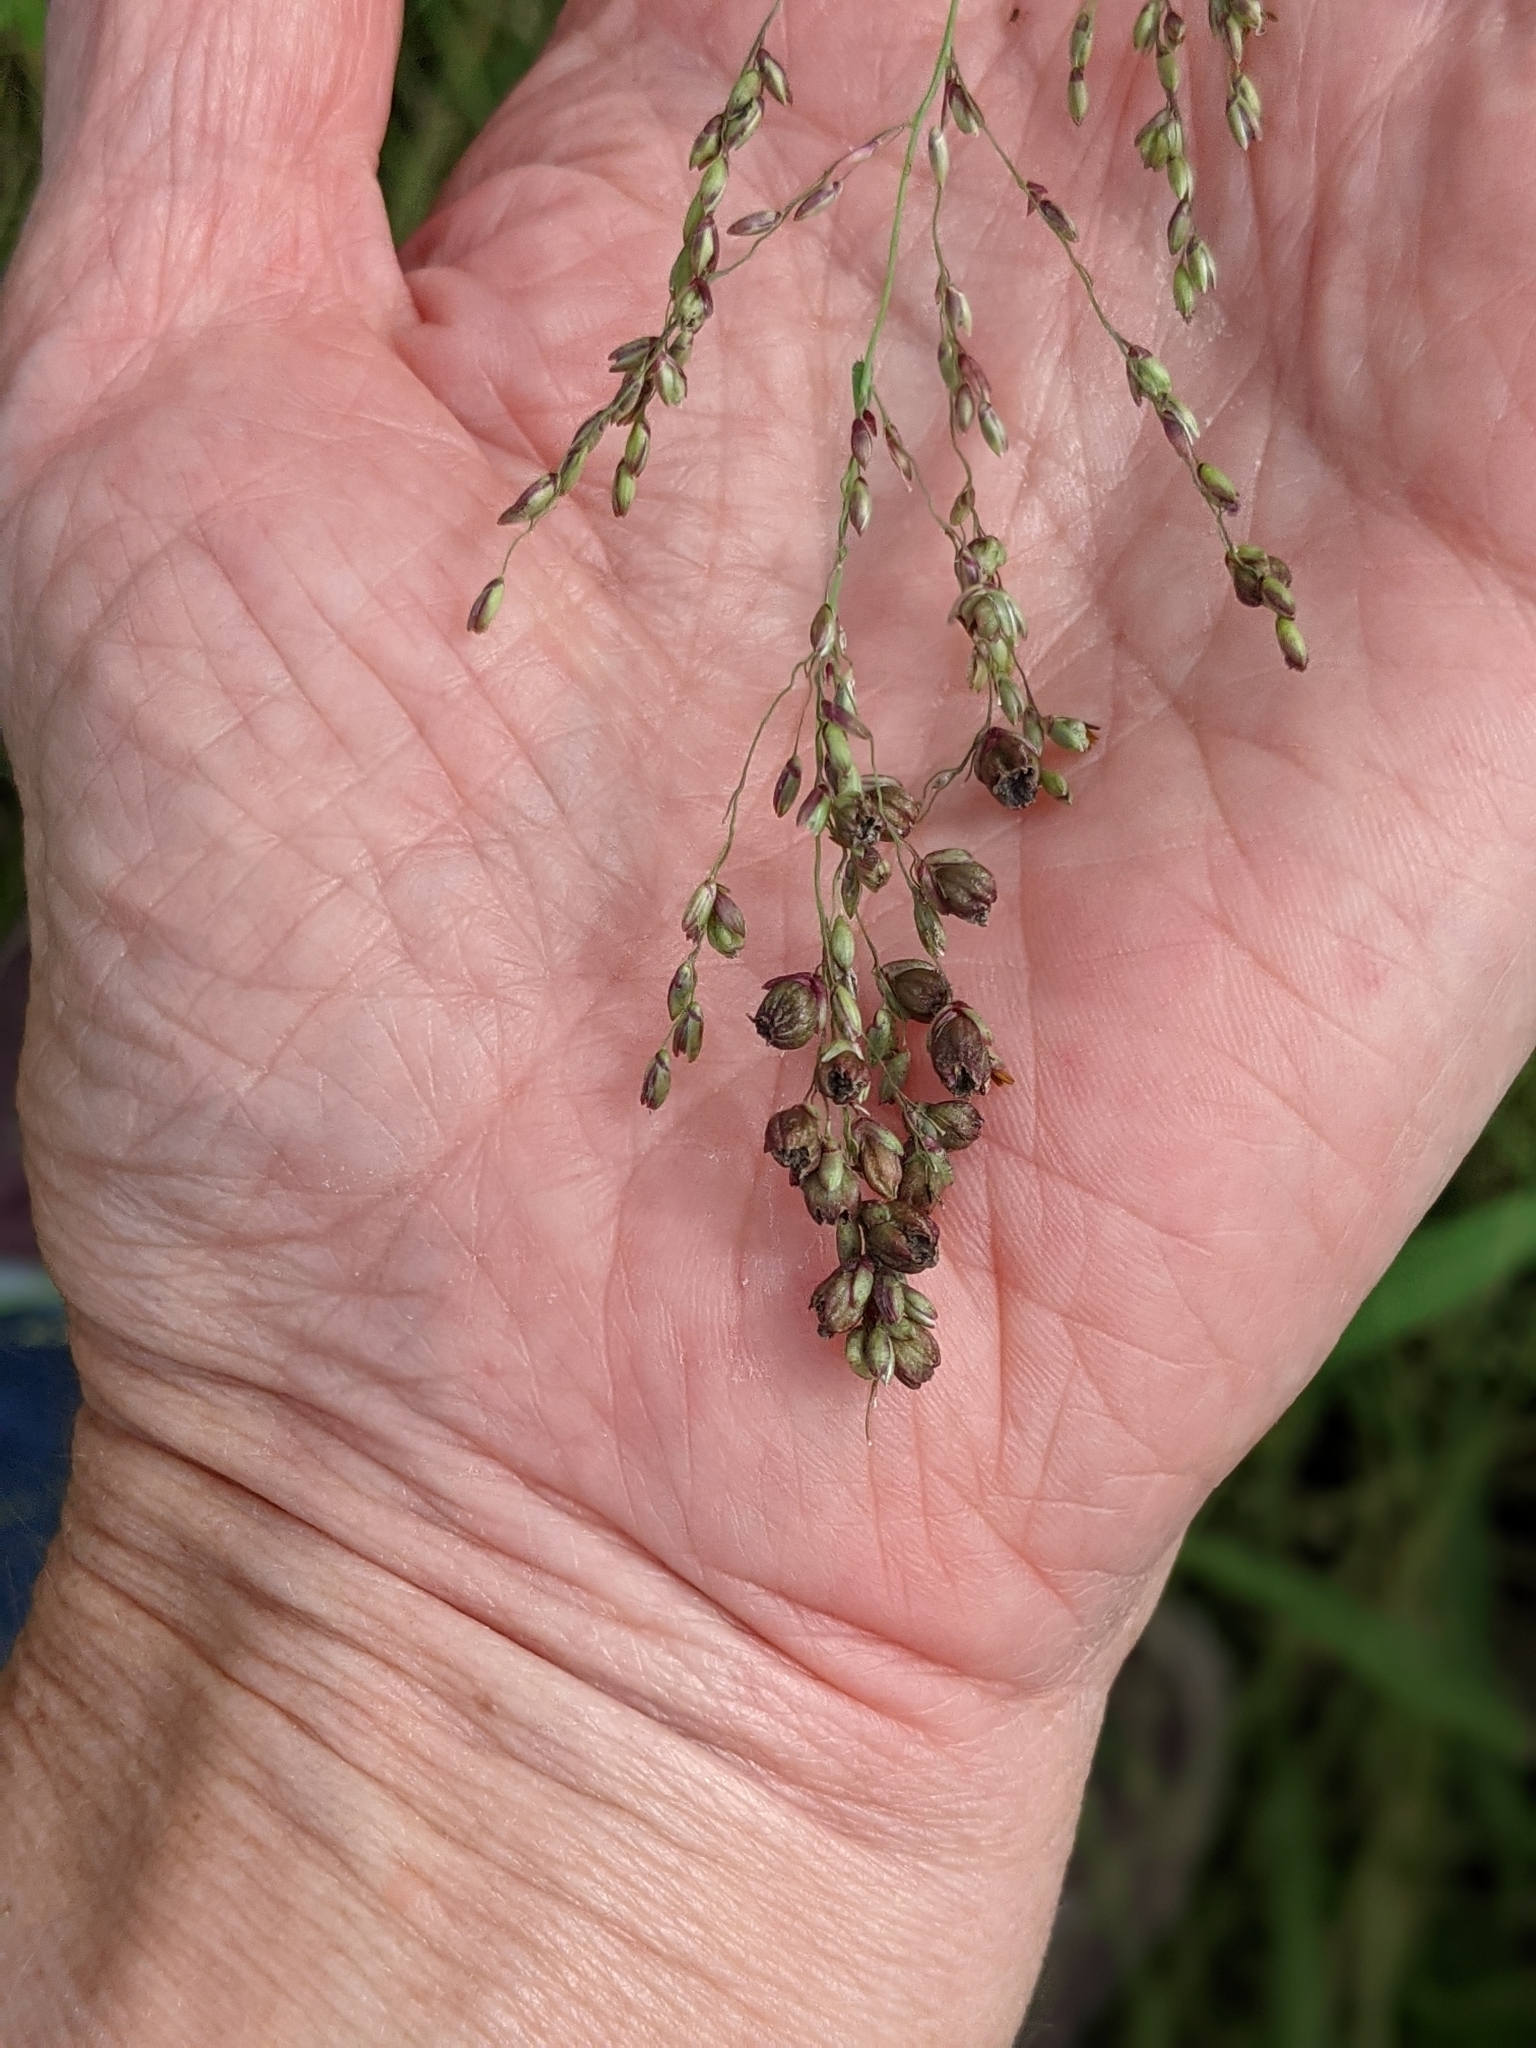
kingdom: Plantae
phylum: Tracheophyta
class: Liliopsida
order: Poales
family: Poaceae
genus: Megathyrsus
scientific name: Megathyrsus maximus
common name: Guineagrass
